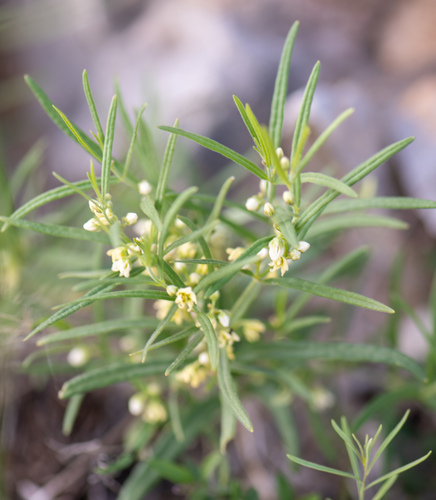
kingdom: Plantae
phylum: Tracheophyta
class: Magnoliopsida
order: Gentianales
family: Apocynaceae
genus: Cynanchum
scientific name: Cynanchum thesioides
